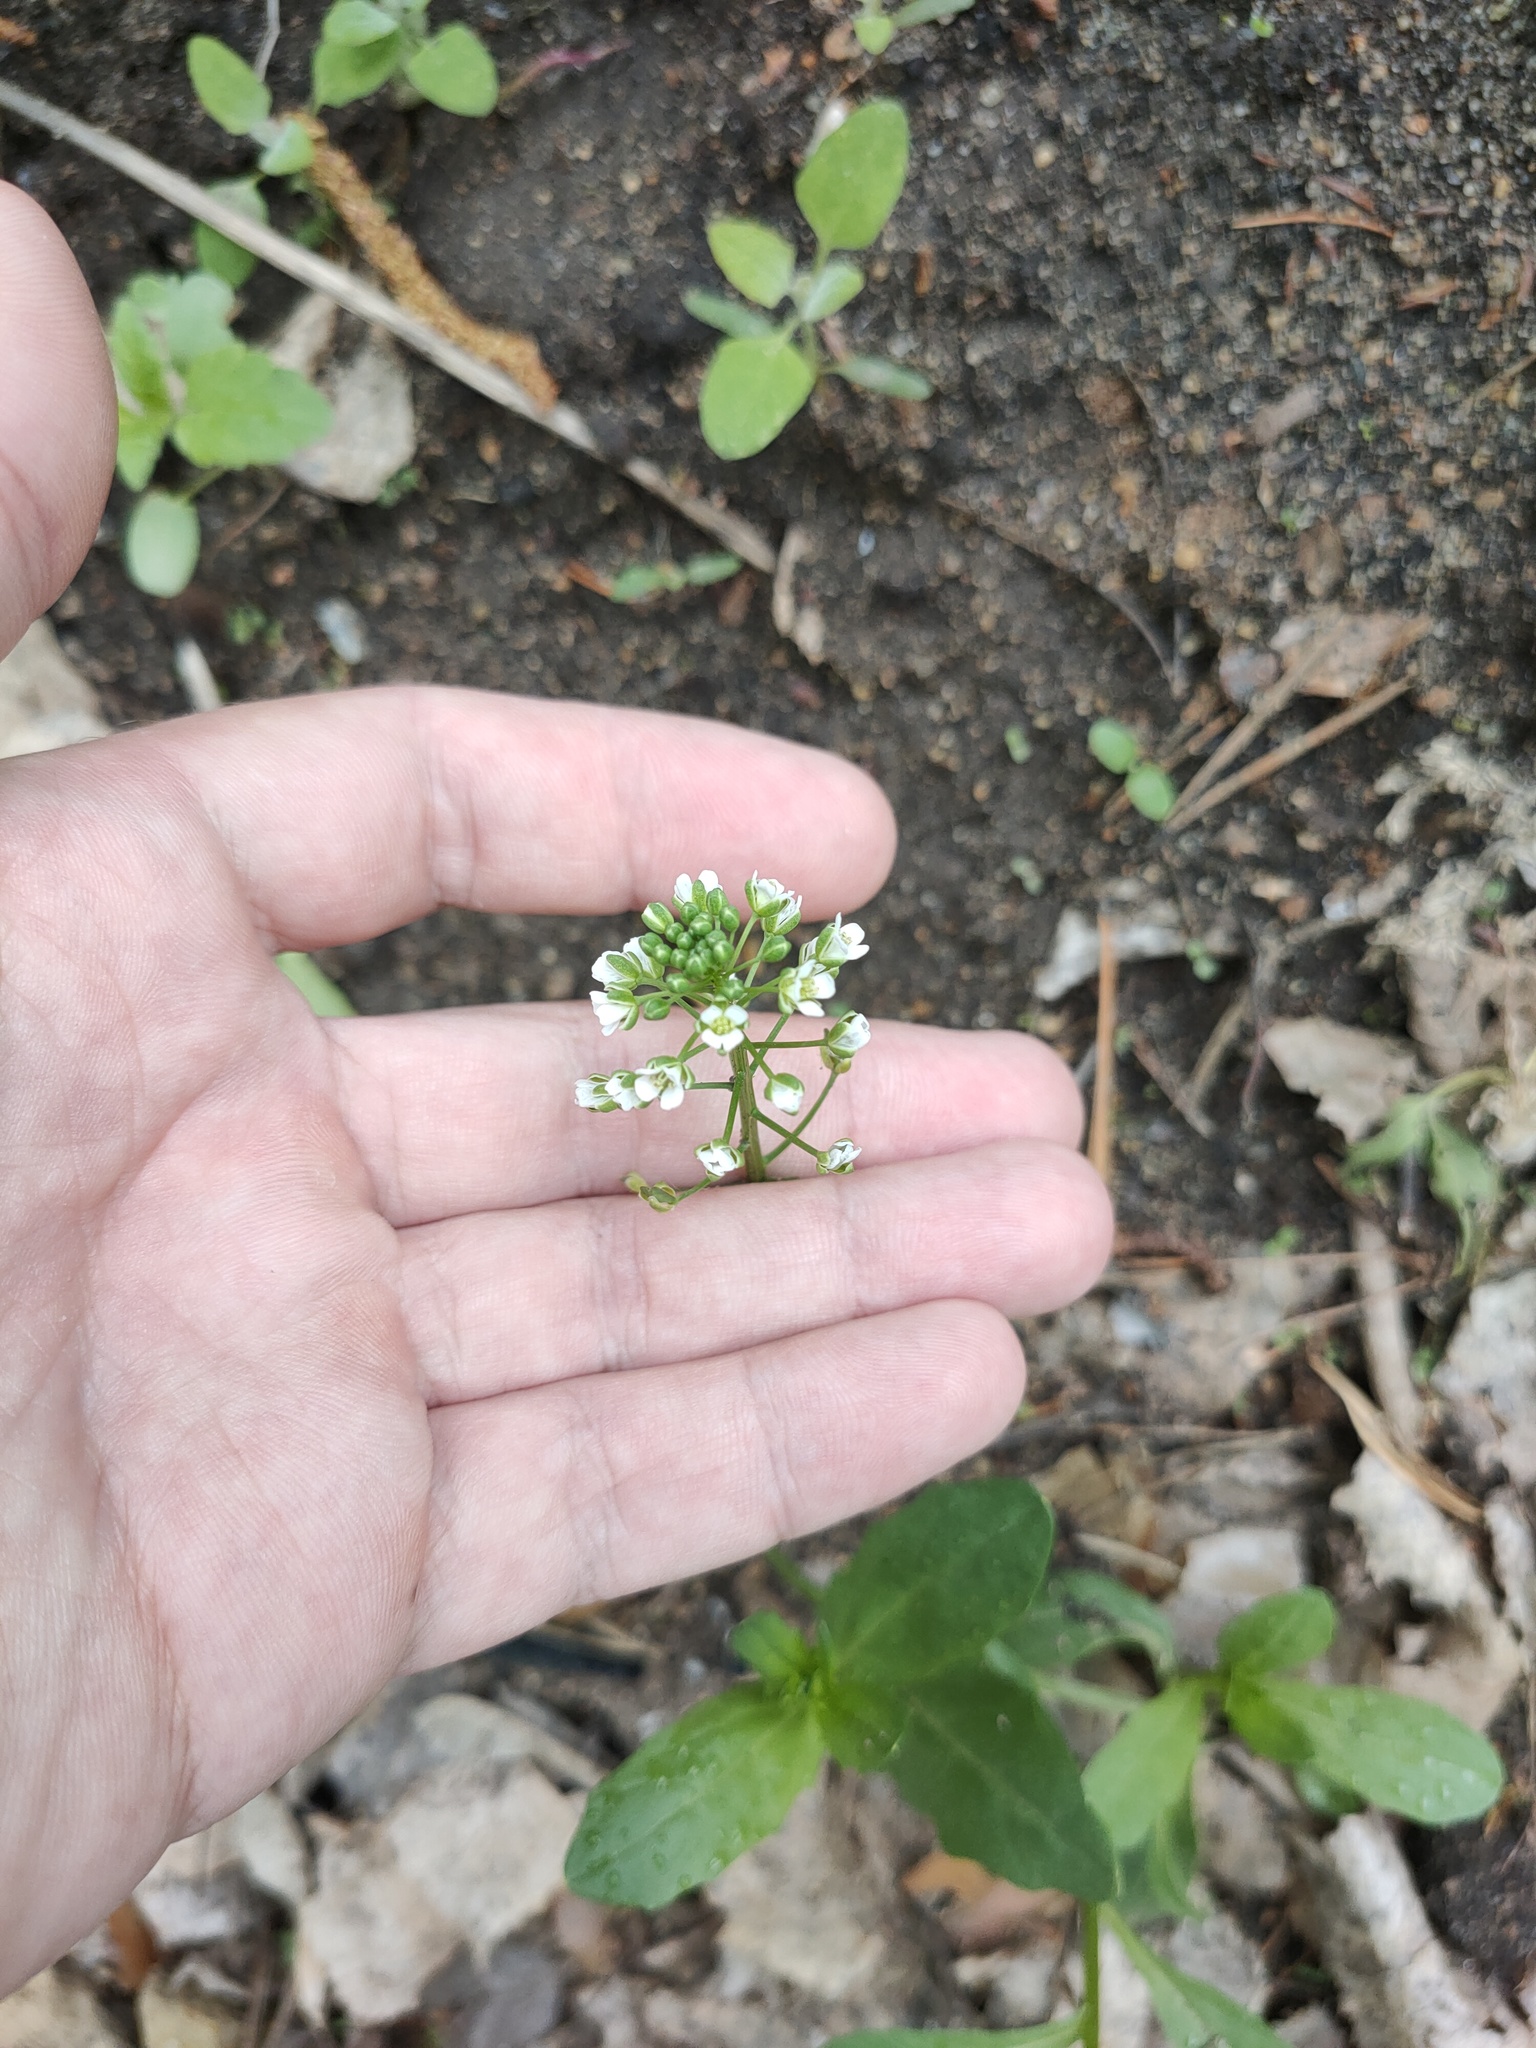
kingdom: Plantae
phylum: Tracheophyta
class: Magnoliopsida
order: Brassicales
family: Brassicaceae
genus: Thlaspi
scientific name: Thlaspi arvense
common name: Field pennycress
